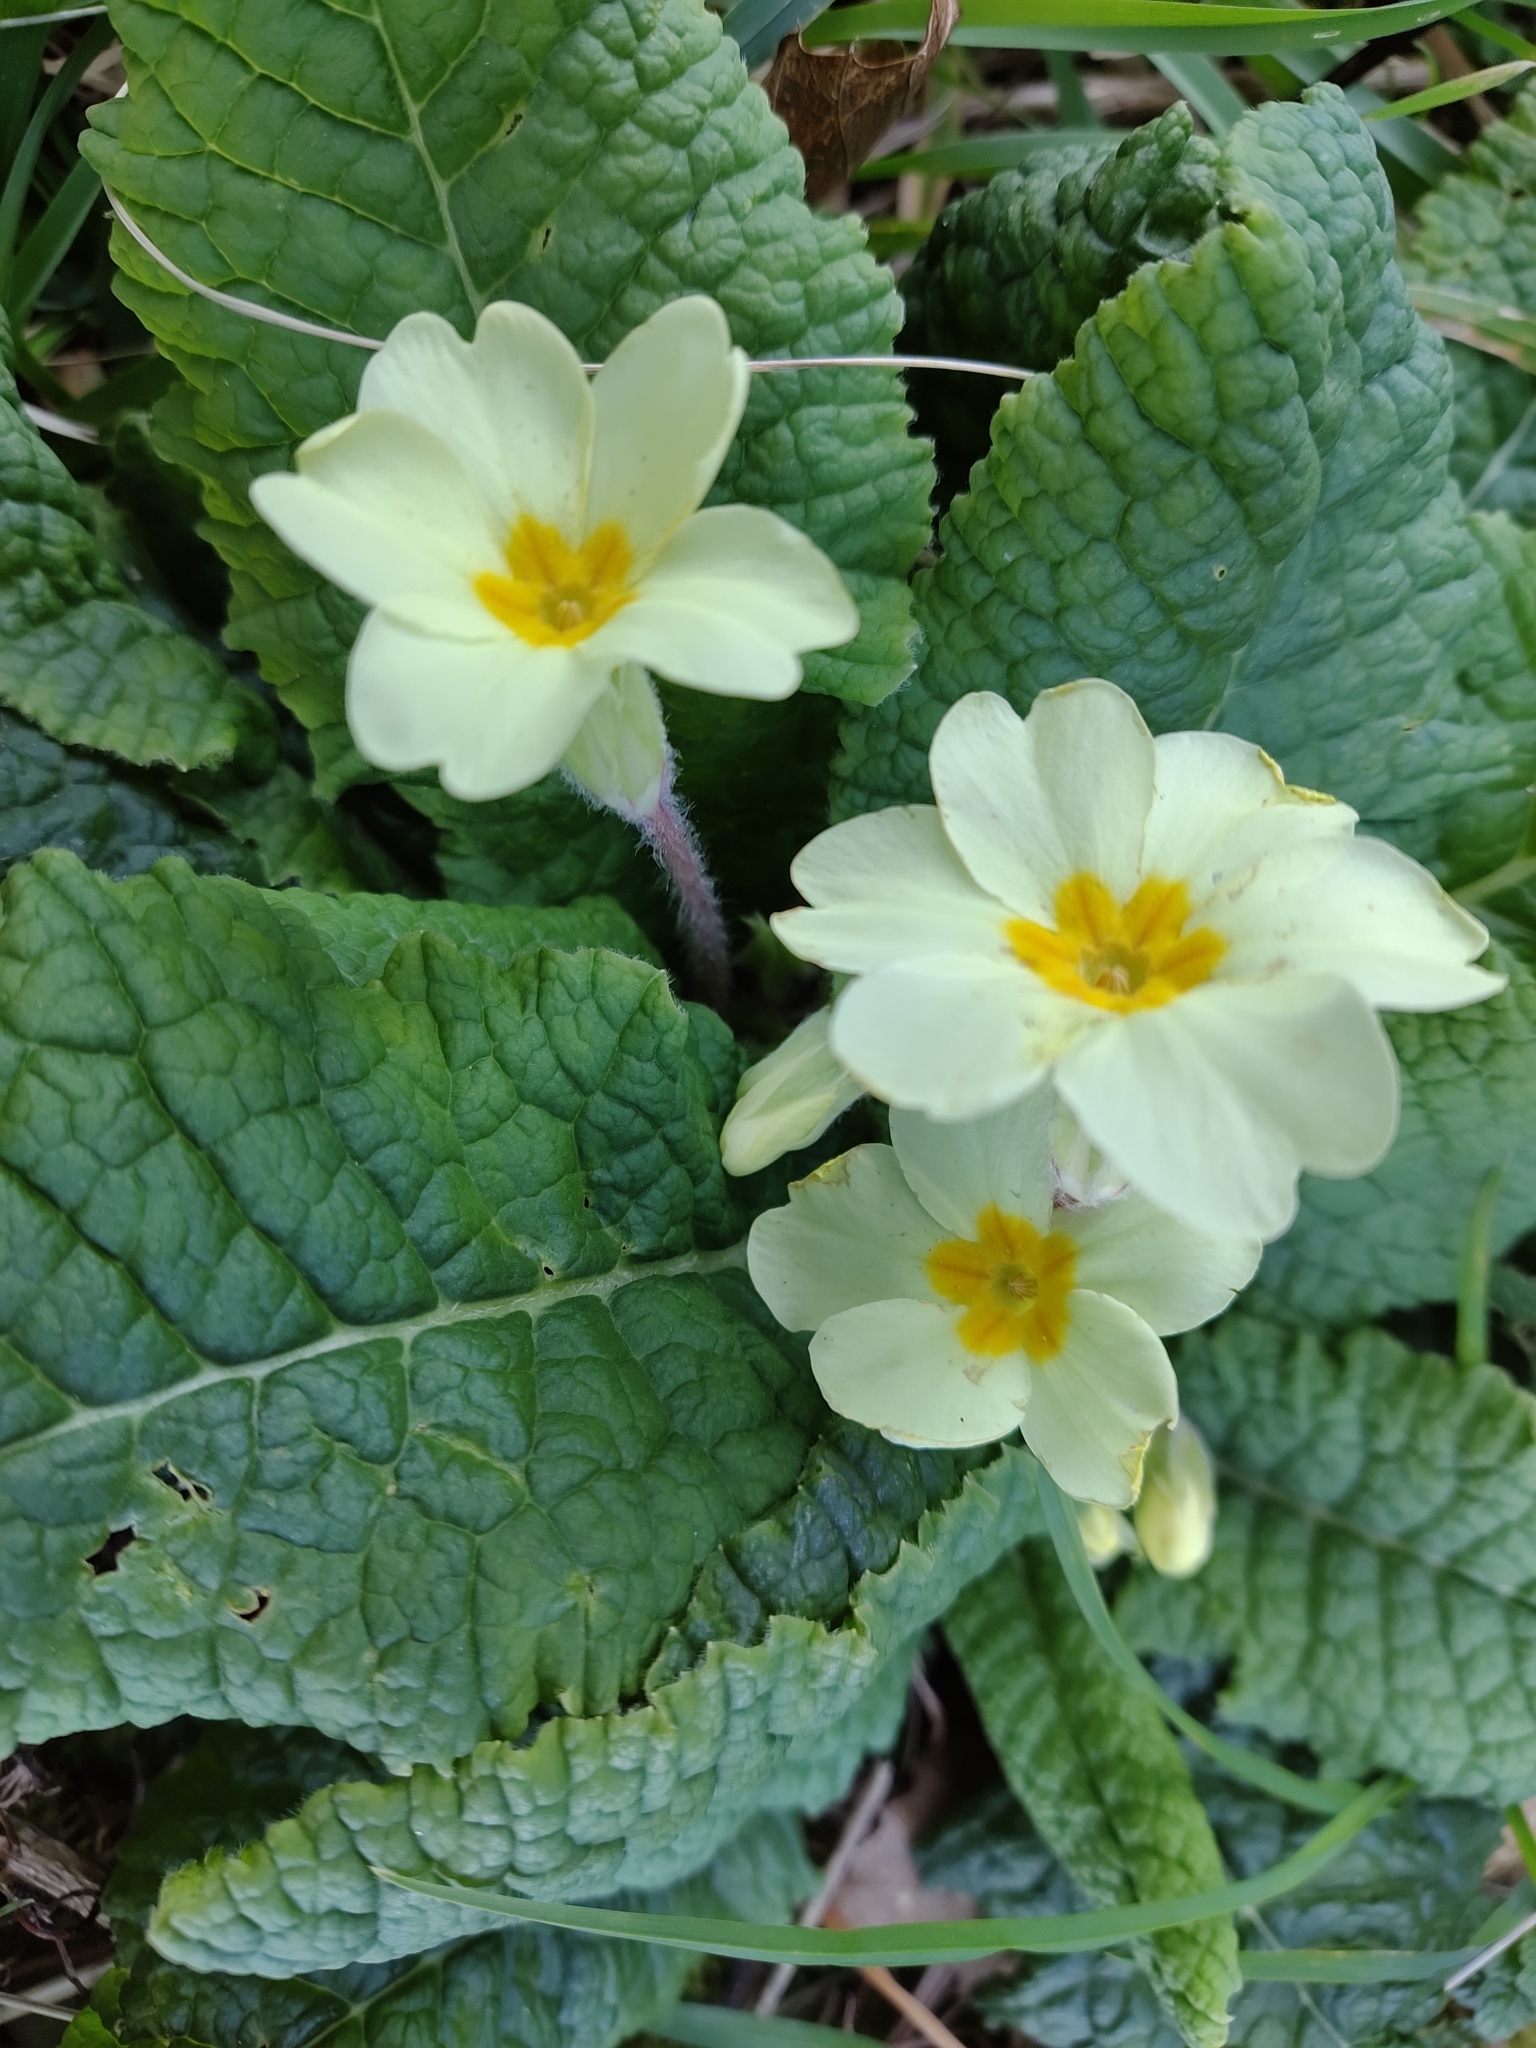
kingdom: Plantae
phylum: Tracheophyta
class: Magnoliopsida
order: Ericales
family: Primulaceae
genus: Primula
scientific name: Primula vulgaris
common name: Primrose
